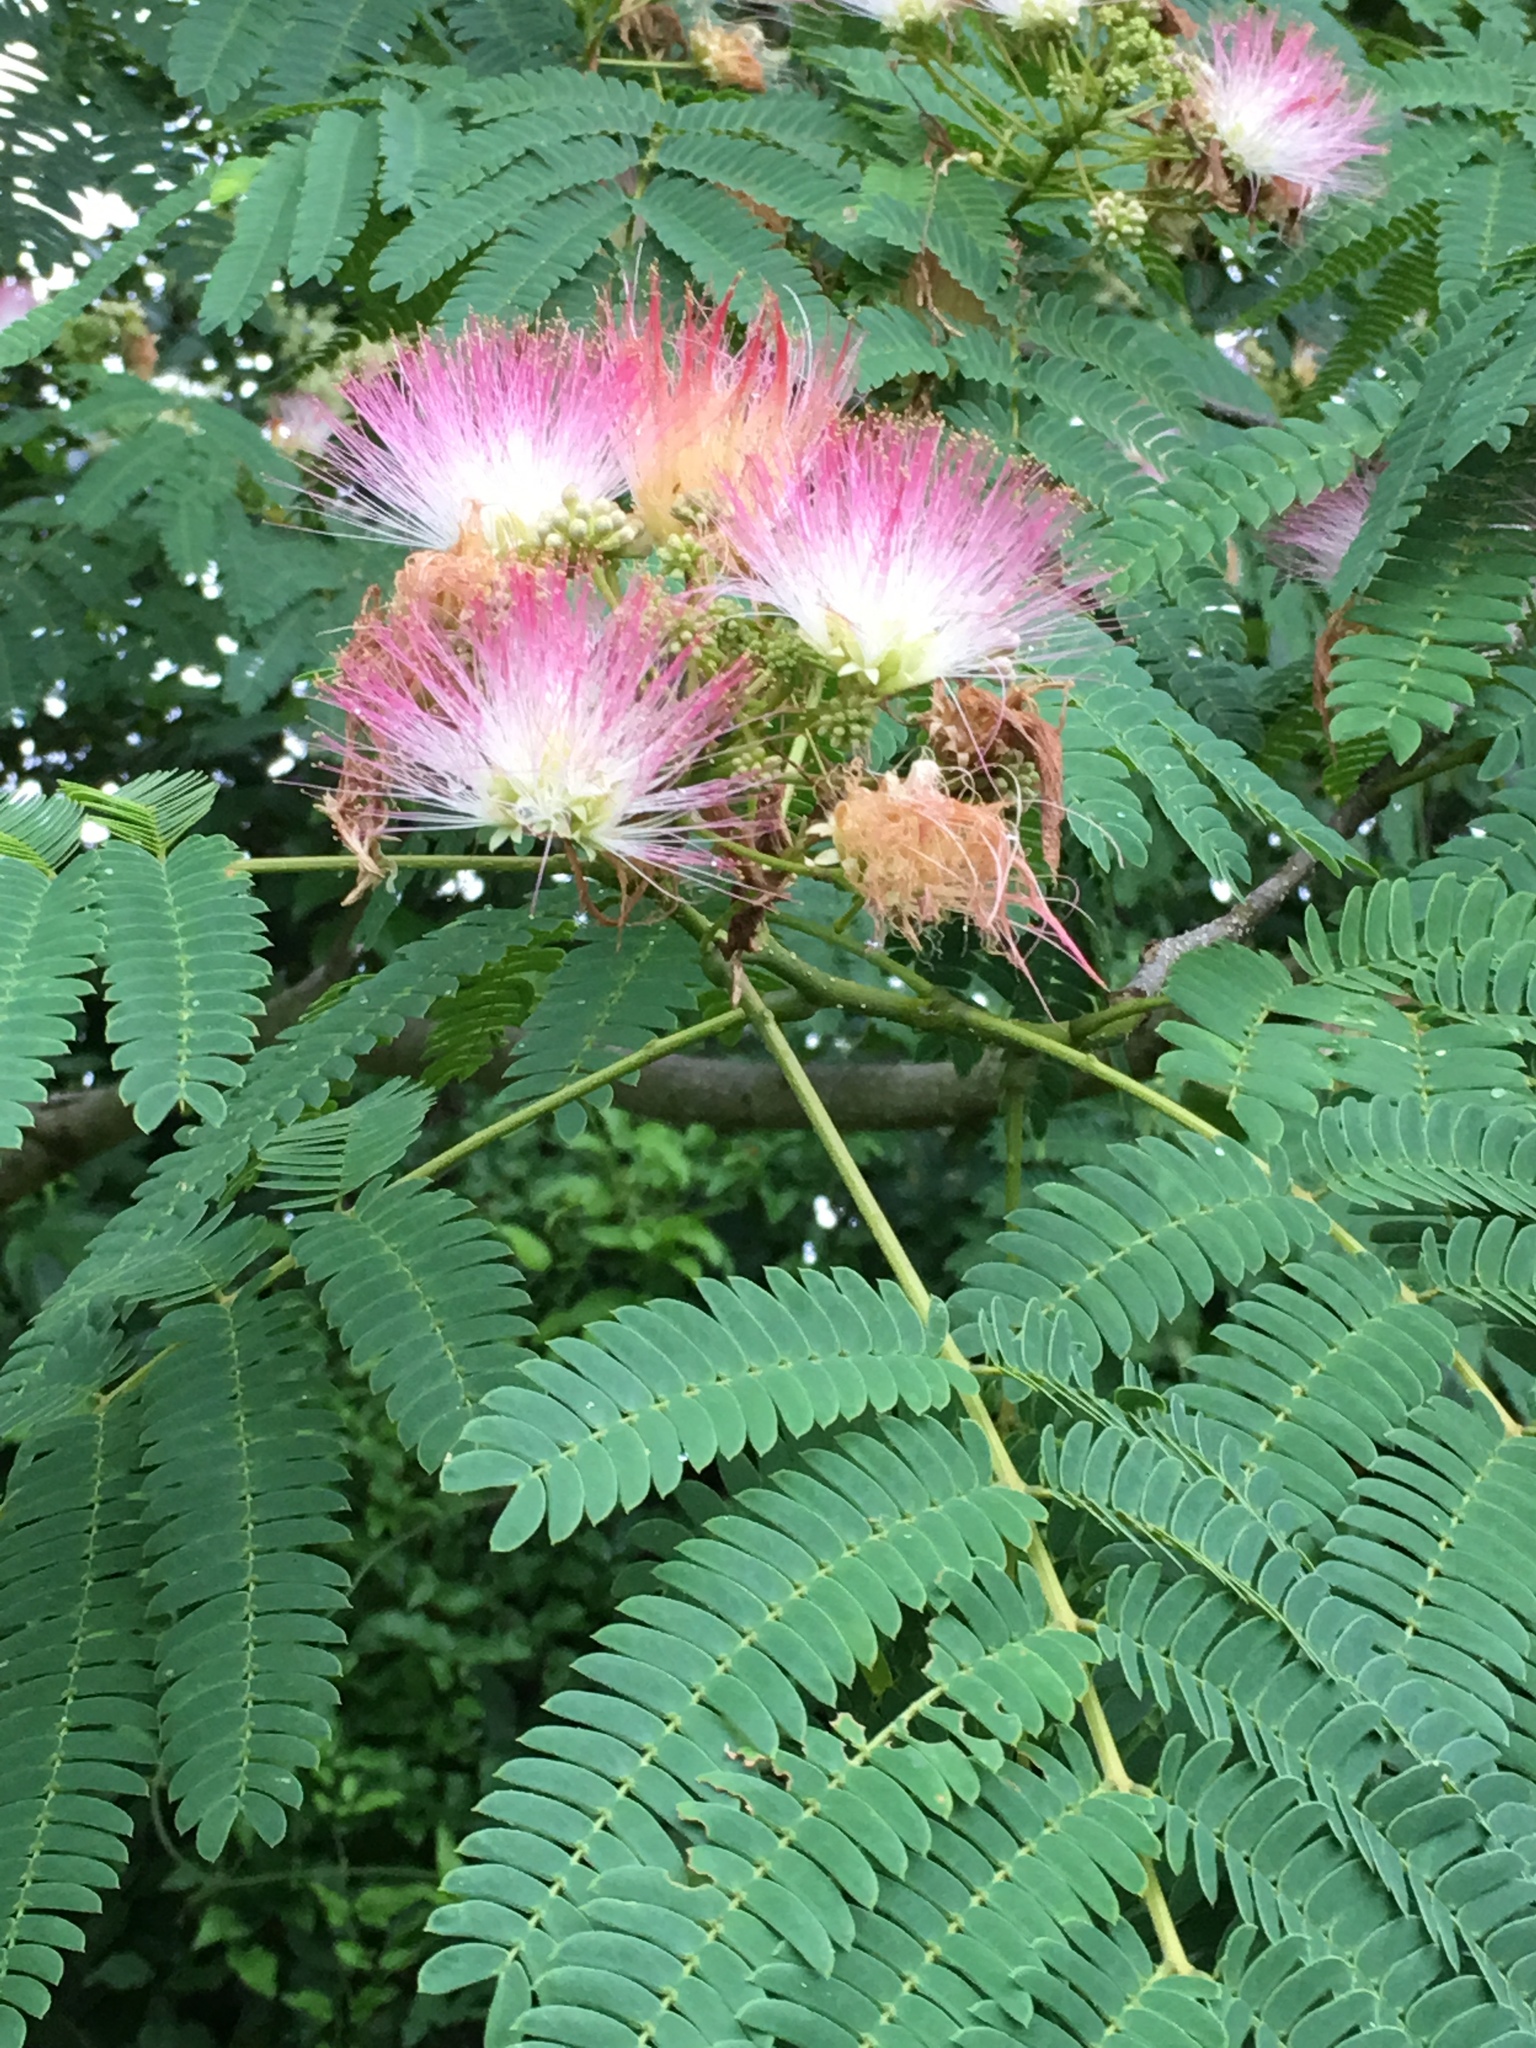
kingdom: Plantae
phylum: Tracheophyta
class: Magnoliopsida
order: Fabales
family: Fabaceae
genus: Albizia
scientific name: Albizia julibrissin
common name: Silktree
